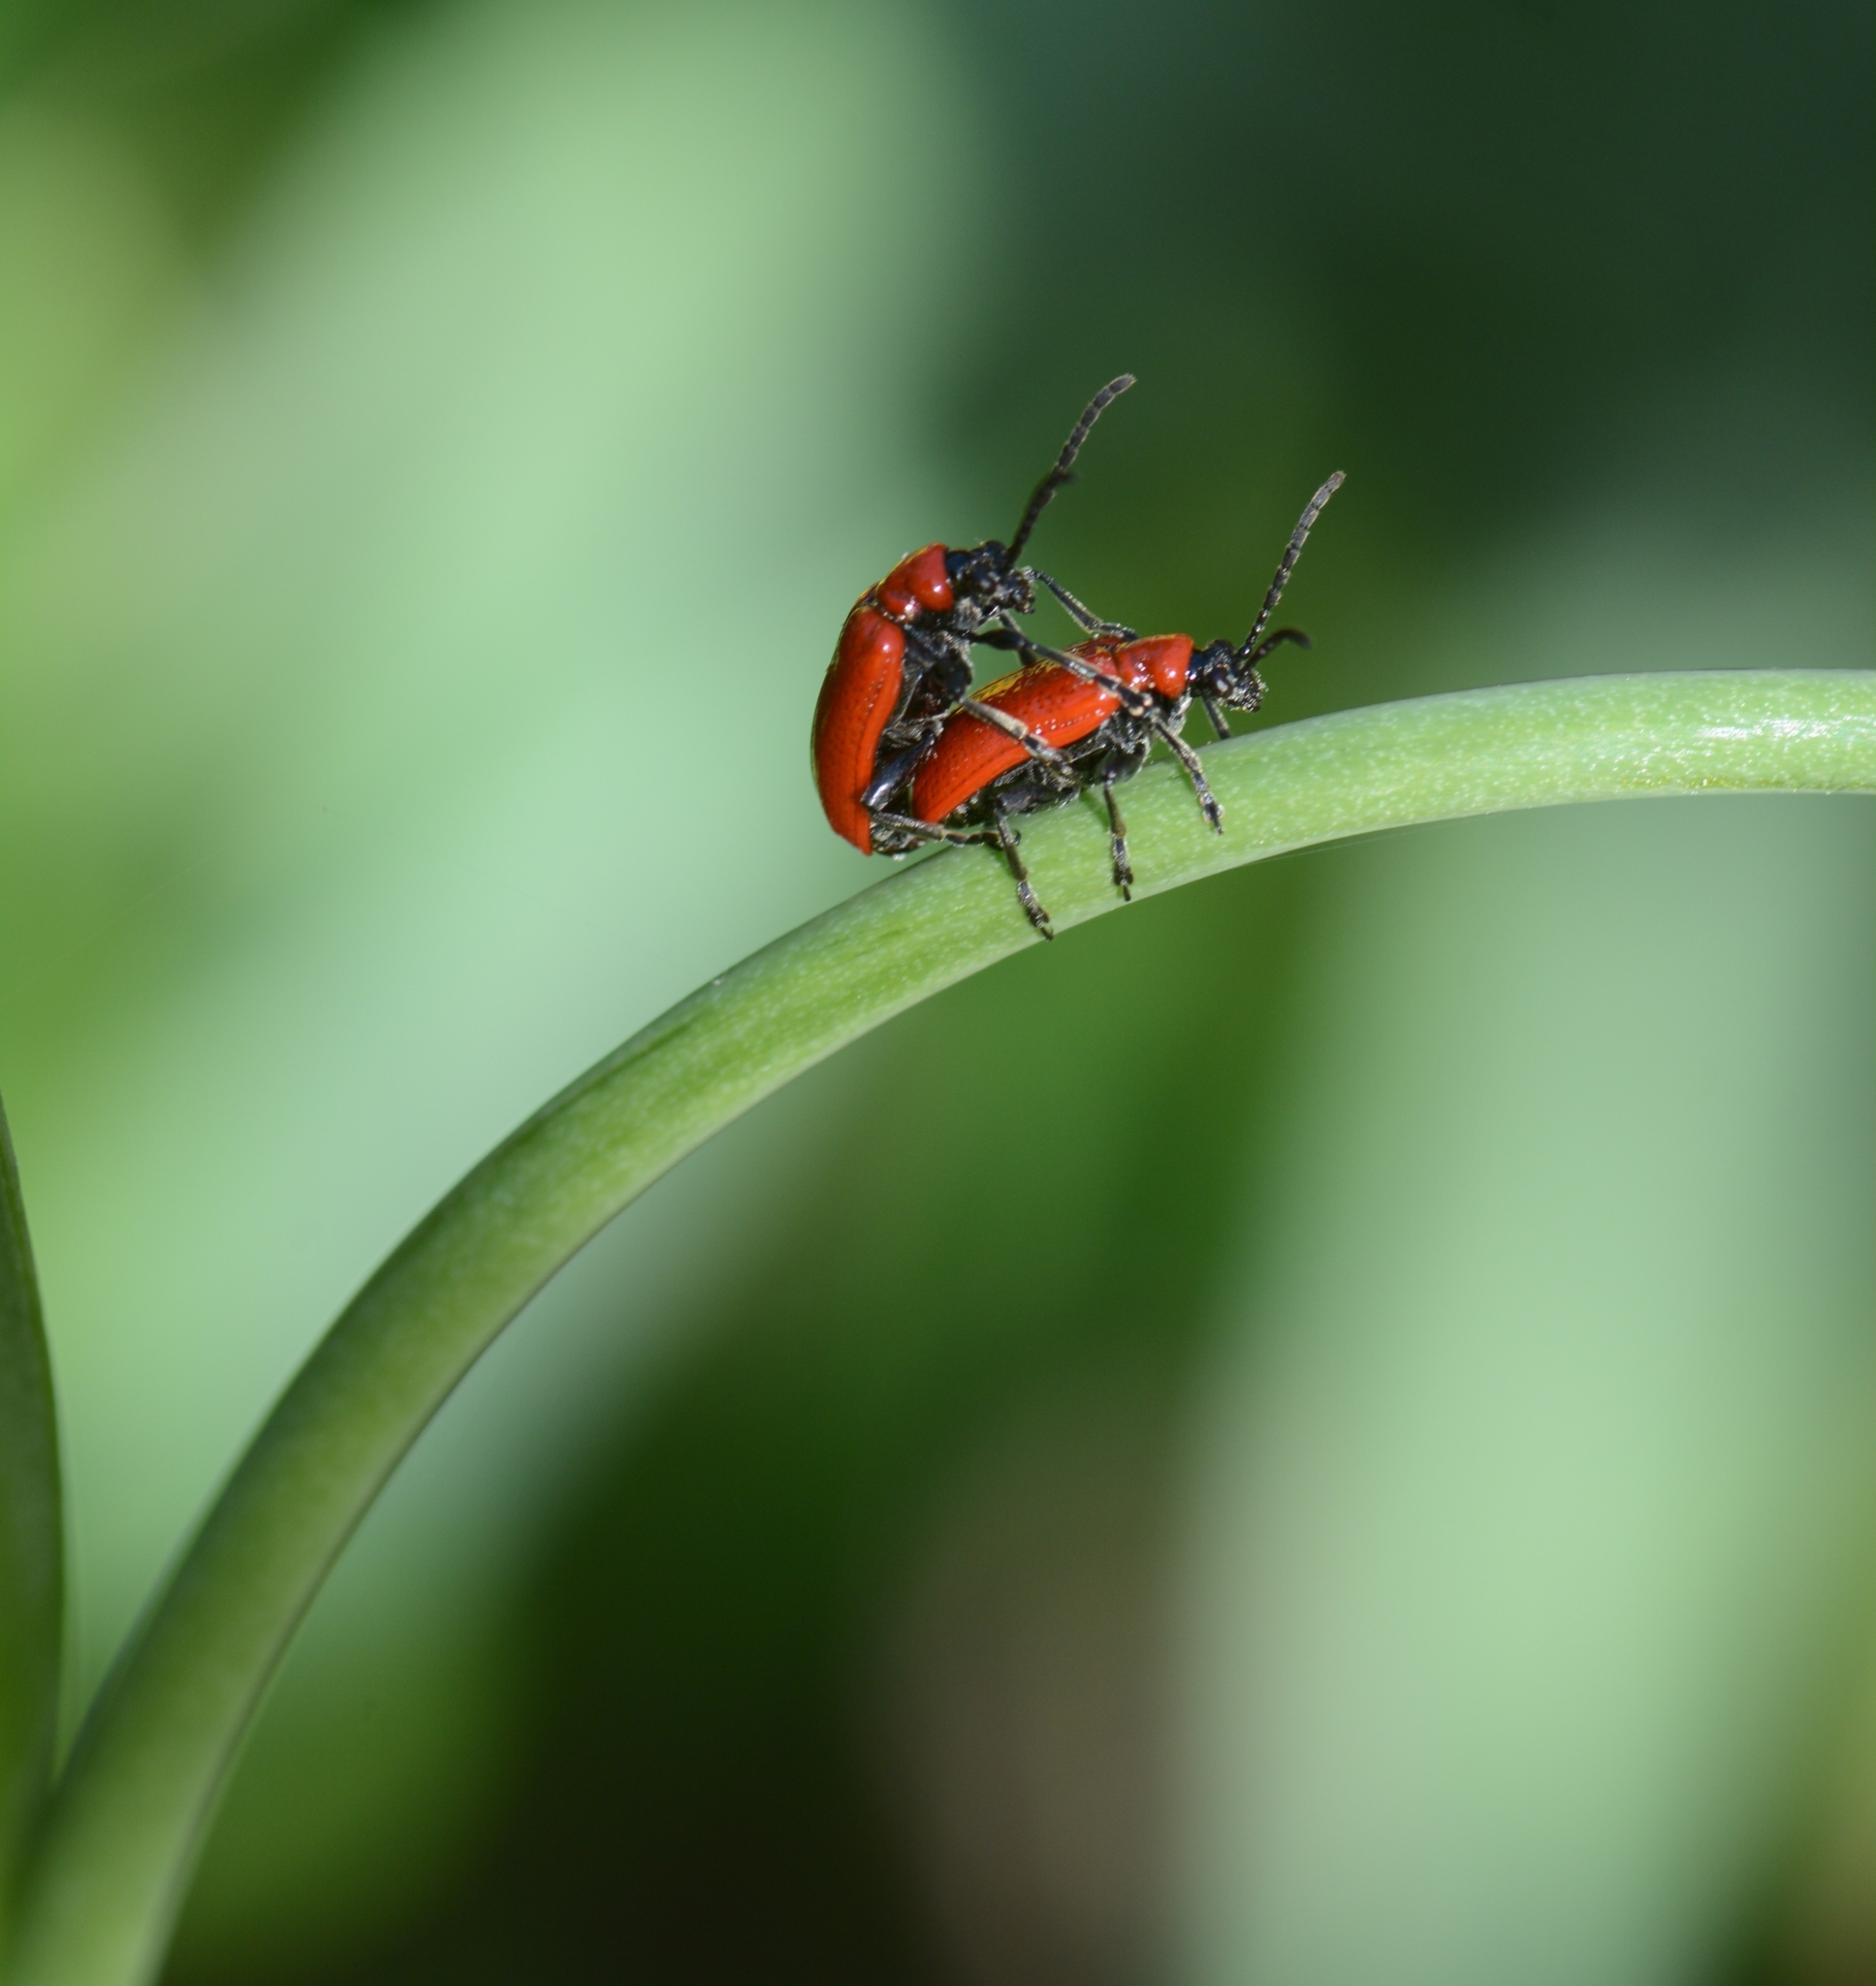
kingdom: Animalia
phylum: Arthropoda
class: Insecta
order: Coleoptera
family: Chrysomelidae
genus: Lilioceris
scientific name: Lilioceris lilii
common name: Lily beetle
